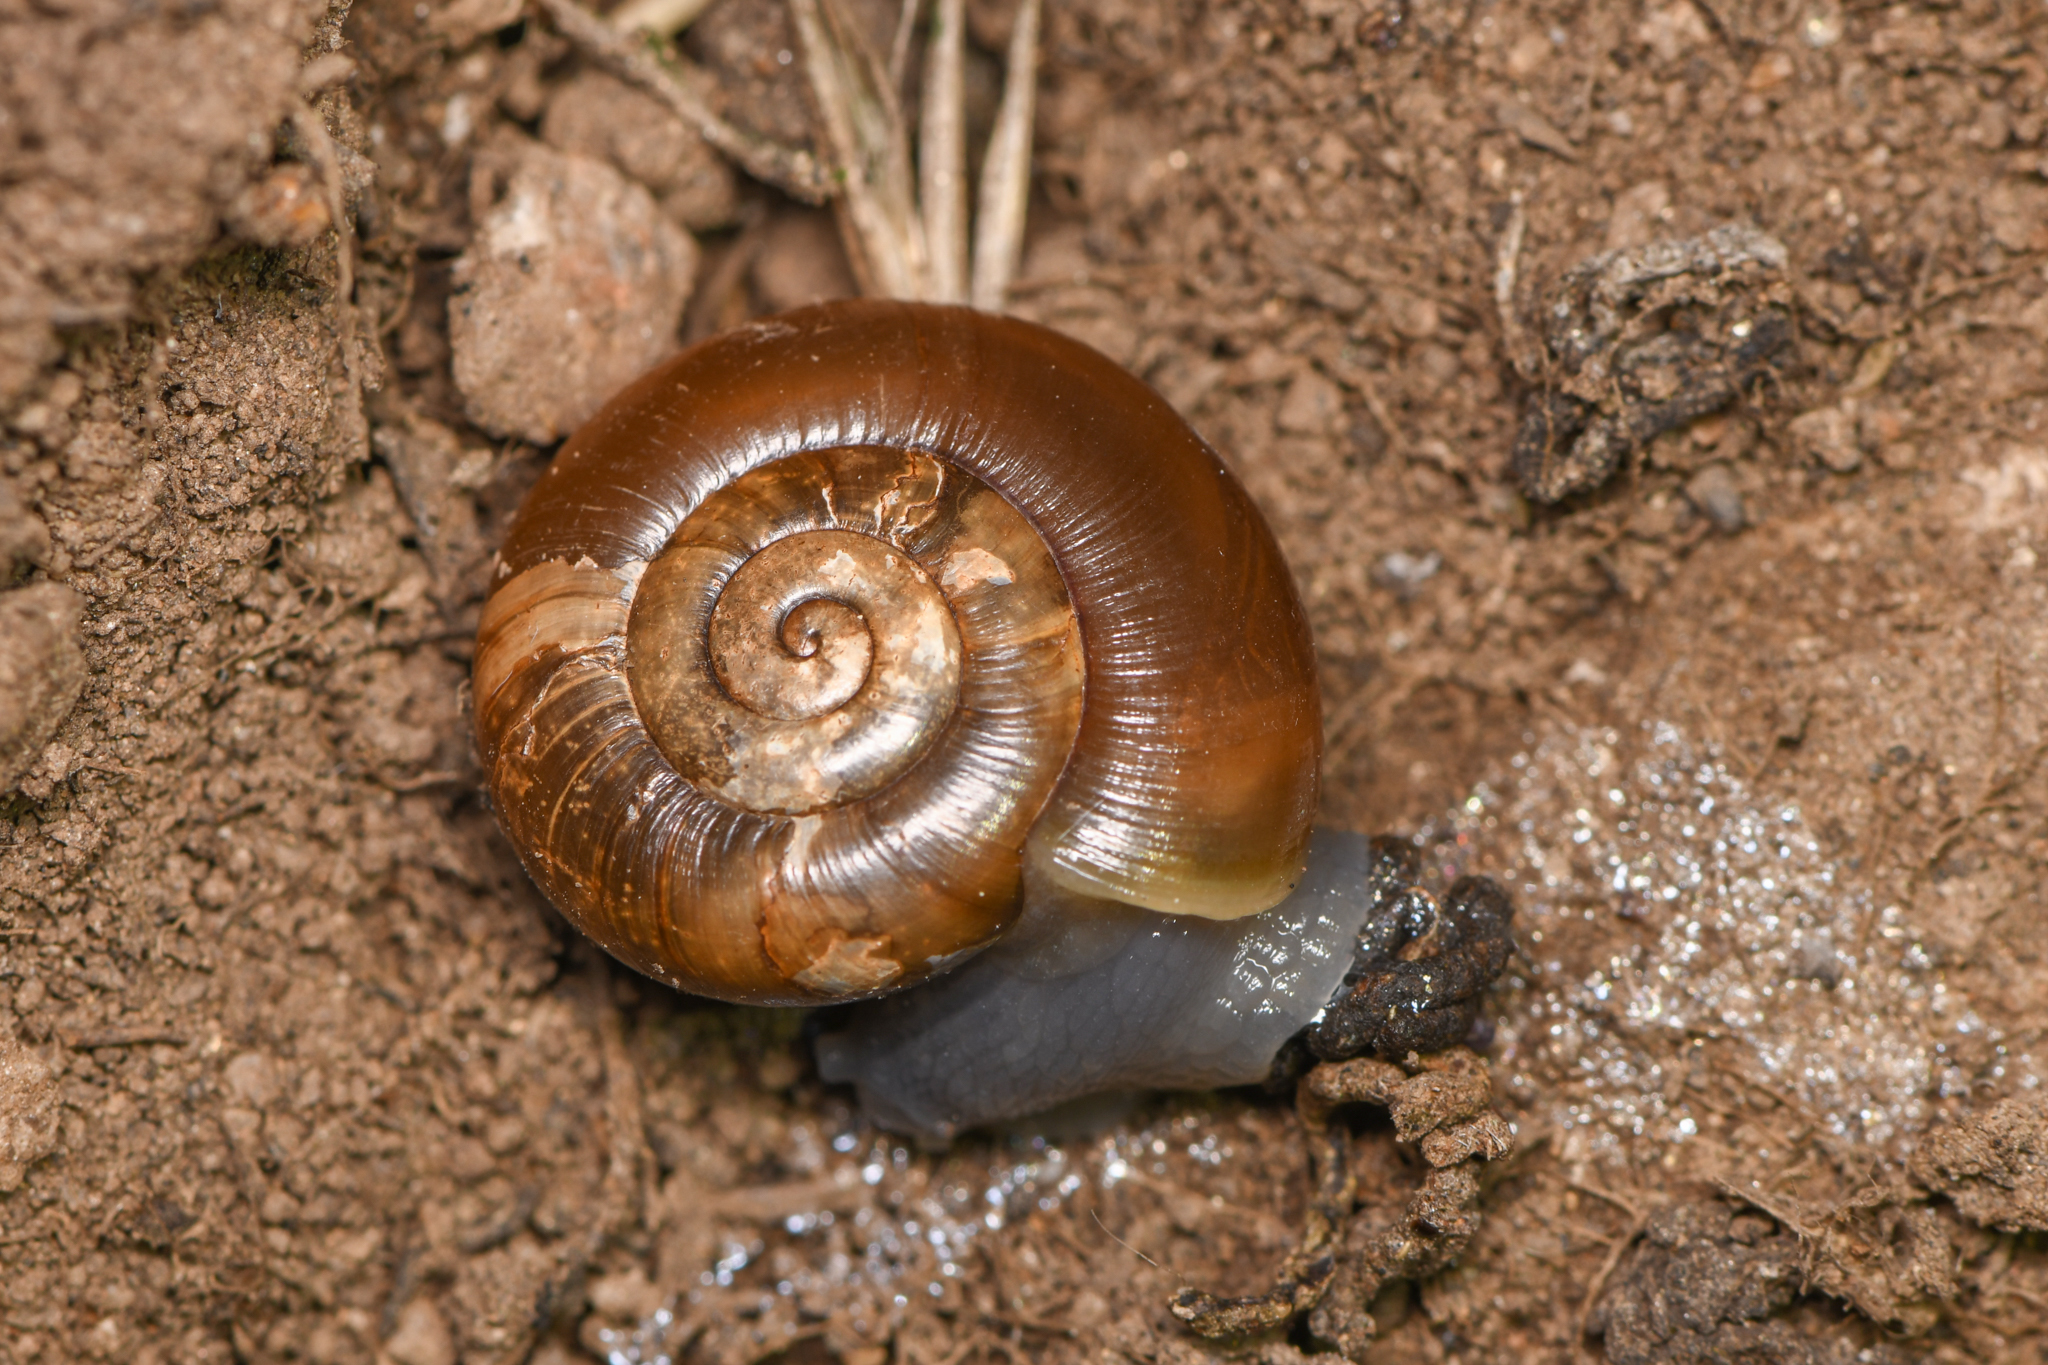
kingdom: Animalia
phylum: Mollusca
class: Gastropoda
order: Stylommatophora
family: Megomphicidae
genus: Glyptostoma
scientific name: Glyptostoma newberryanum
